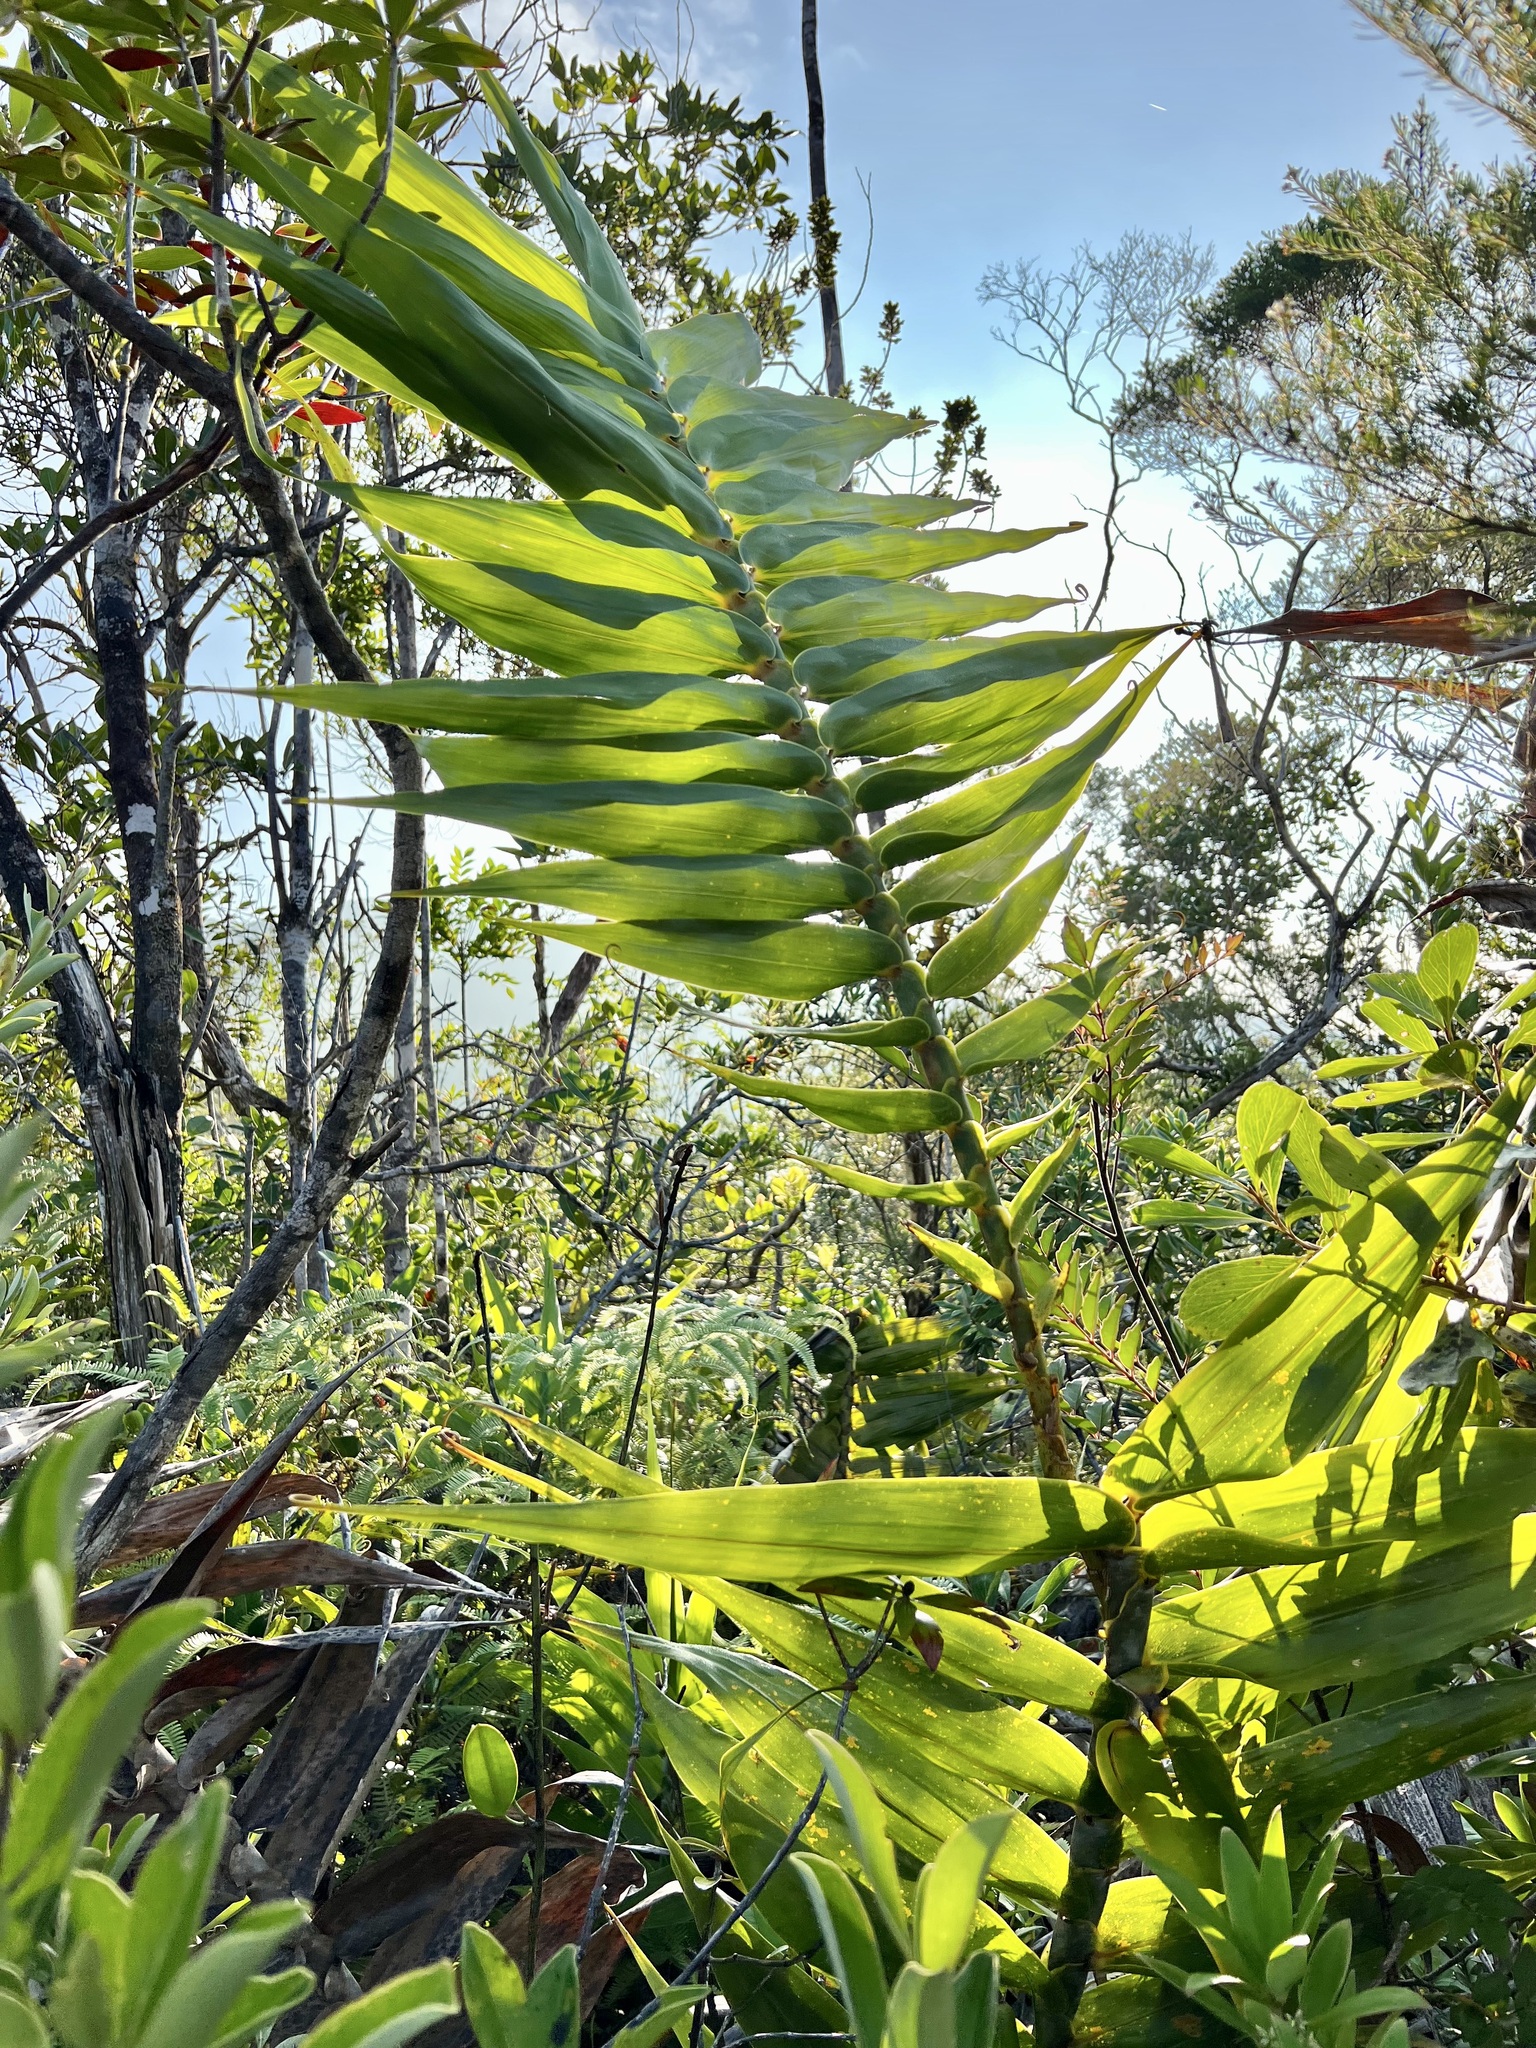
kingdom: Plantae
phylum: Tracheophyta
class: Liliopsida
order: Poales
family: Flagellariaceae
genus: Flagellaria
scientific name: Flagellaria neocaledonica
